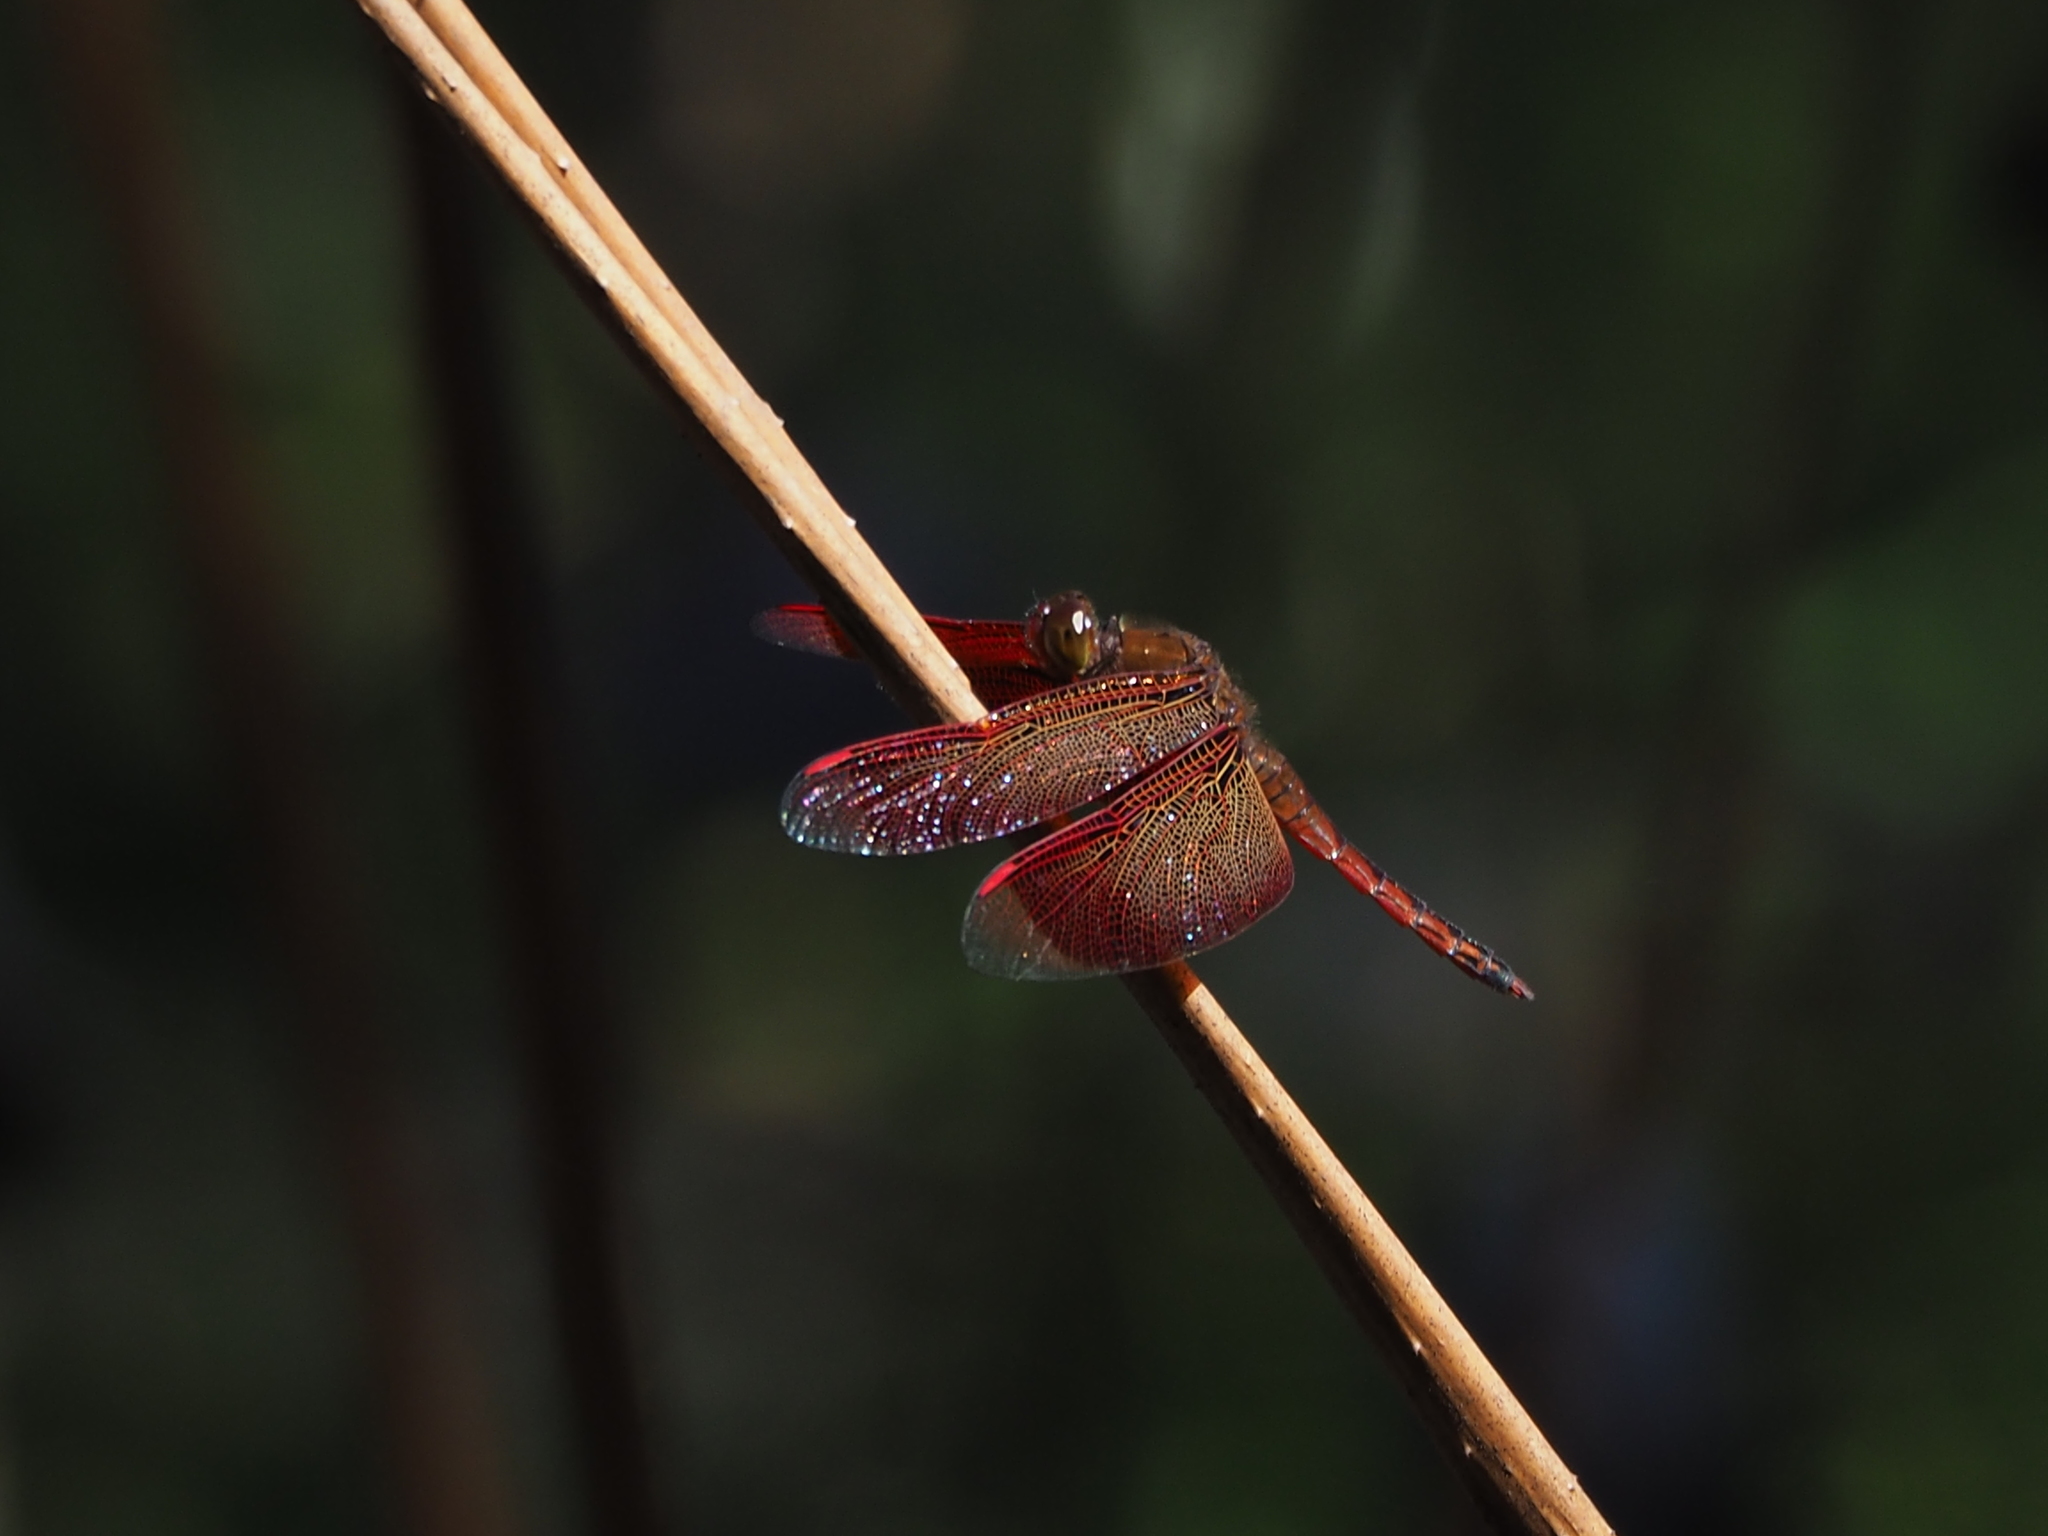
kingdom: Animalia
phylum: Arthropoda
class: Insecta
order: Odonata
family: Libellulidae
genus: Neurothemis
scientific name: Neurothemis taiwanensis
